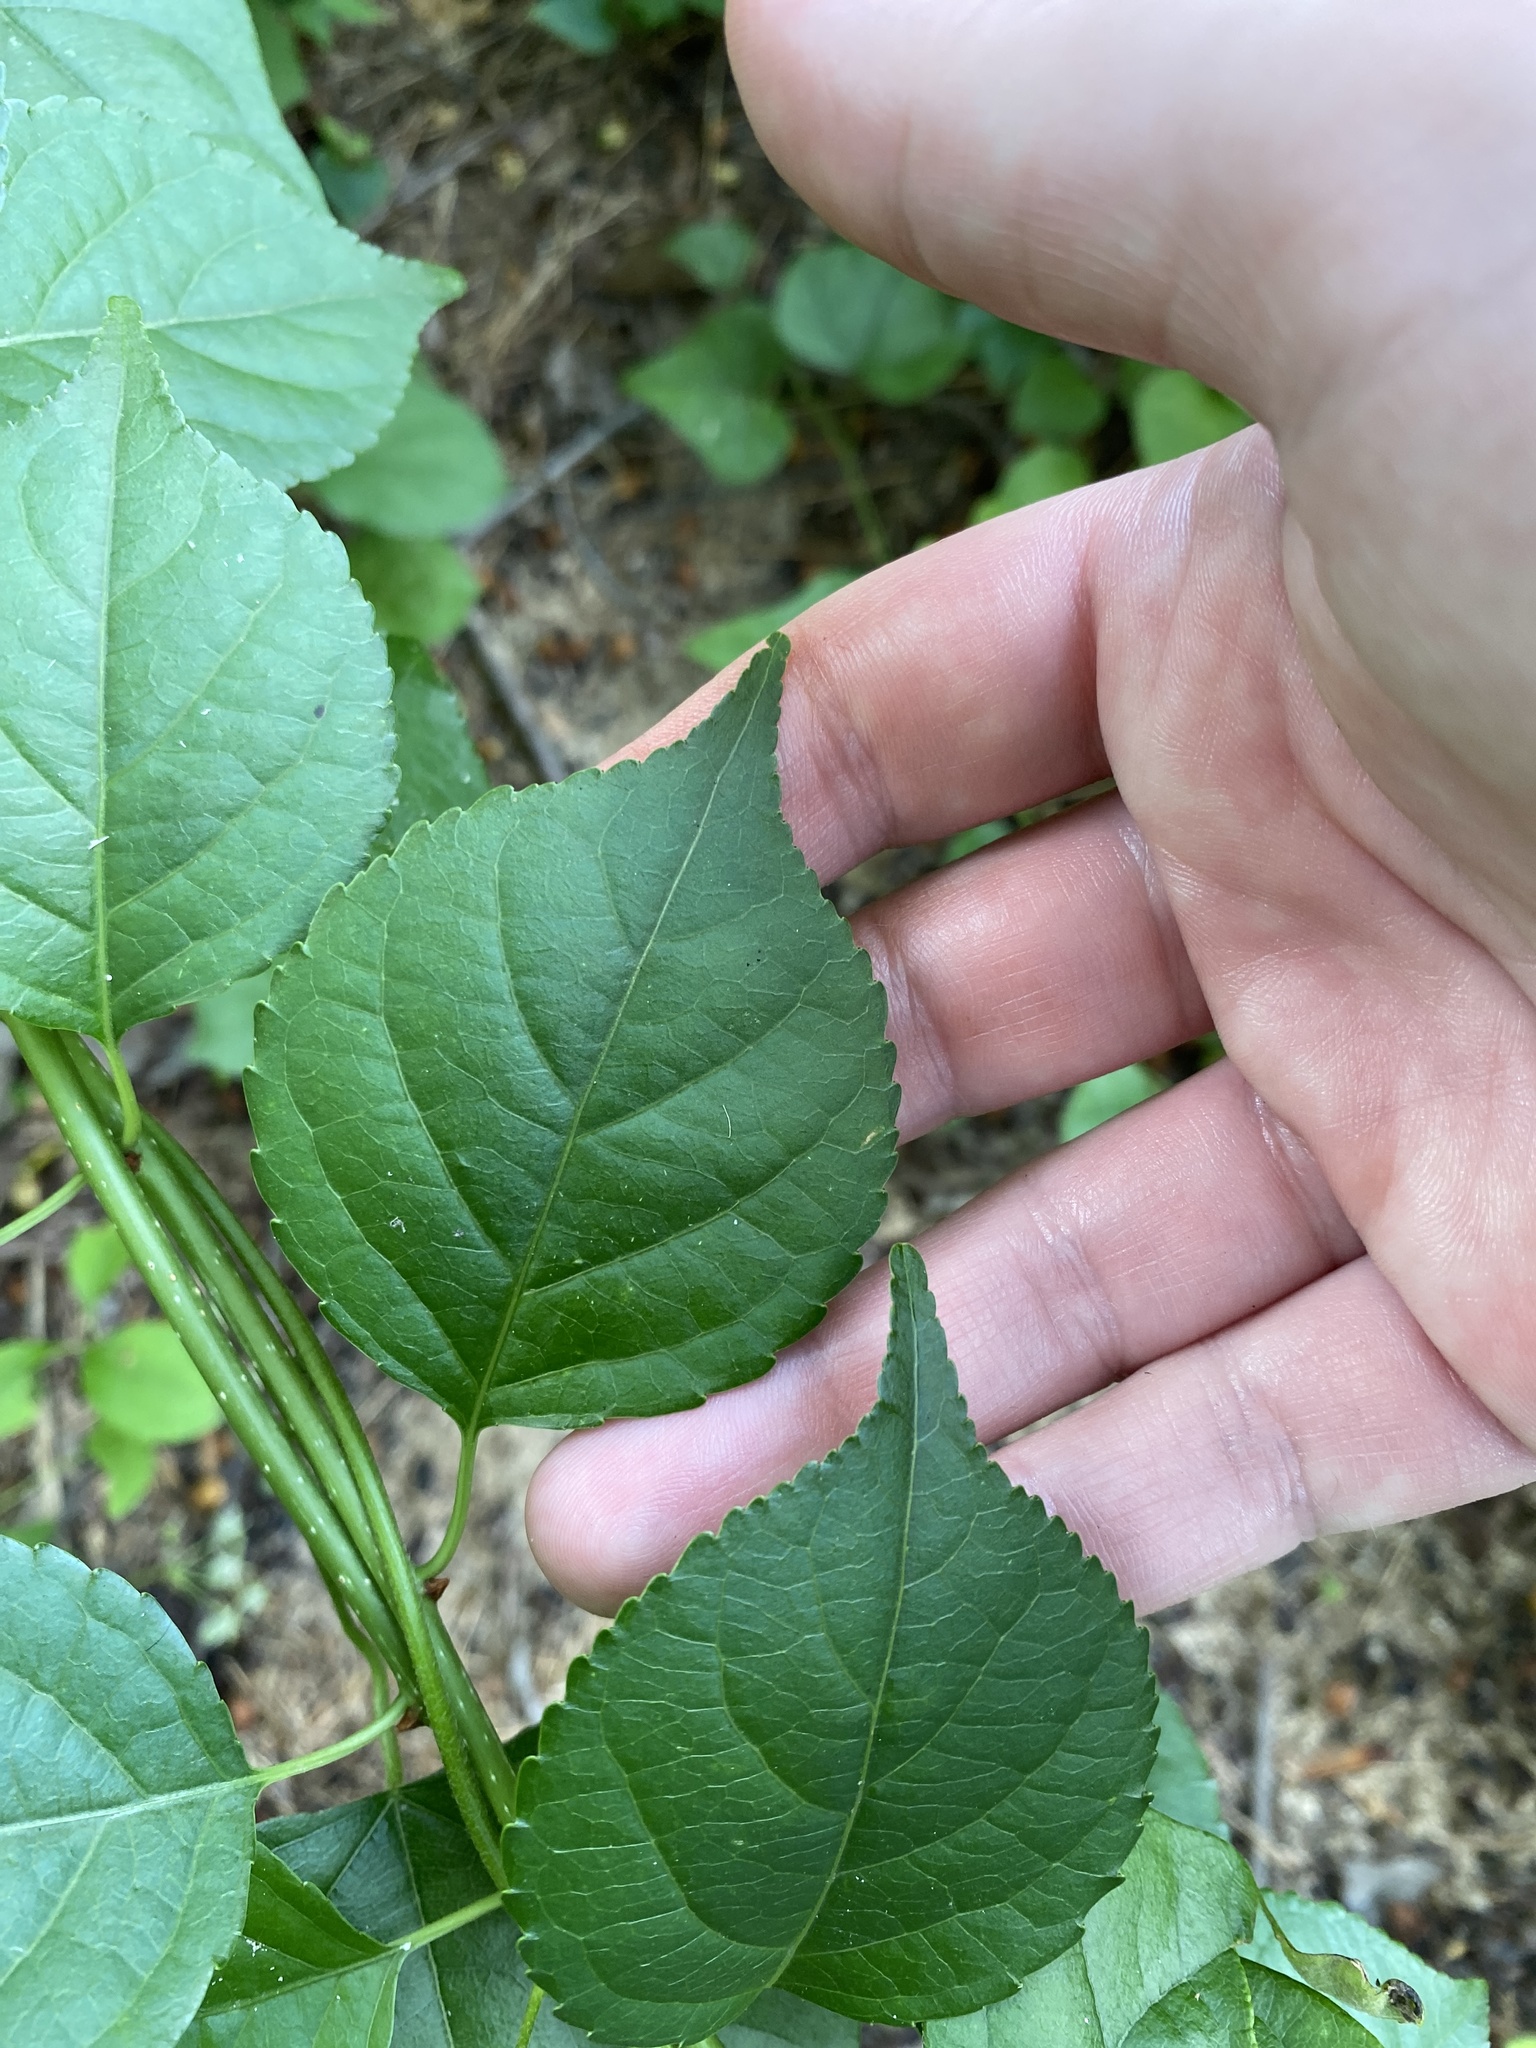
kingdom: Plantae
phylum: Tracheophyta
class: Magnoliopsida
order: Celastrales
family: Celastraceae
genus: Celastrus
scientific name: Celastrus orbiculatus
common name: Oriental bittersweet
